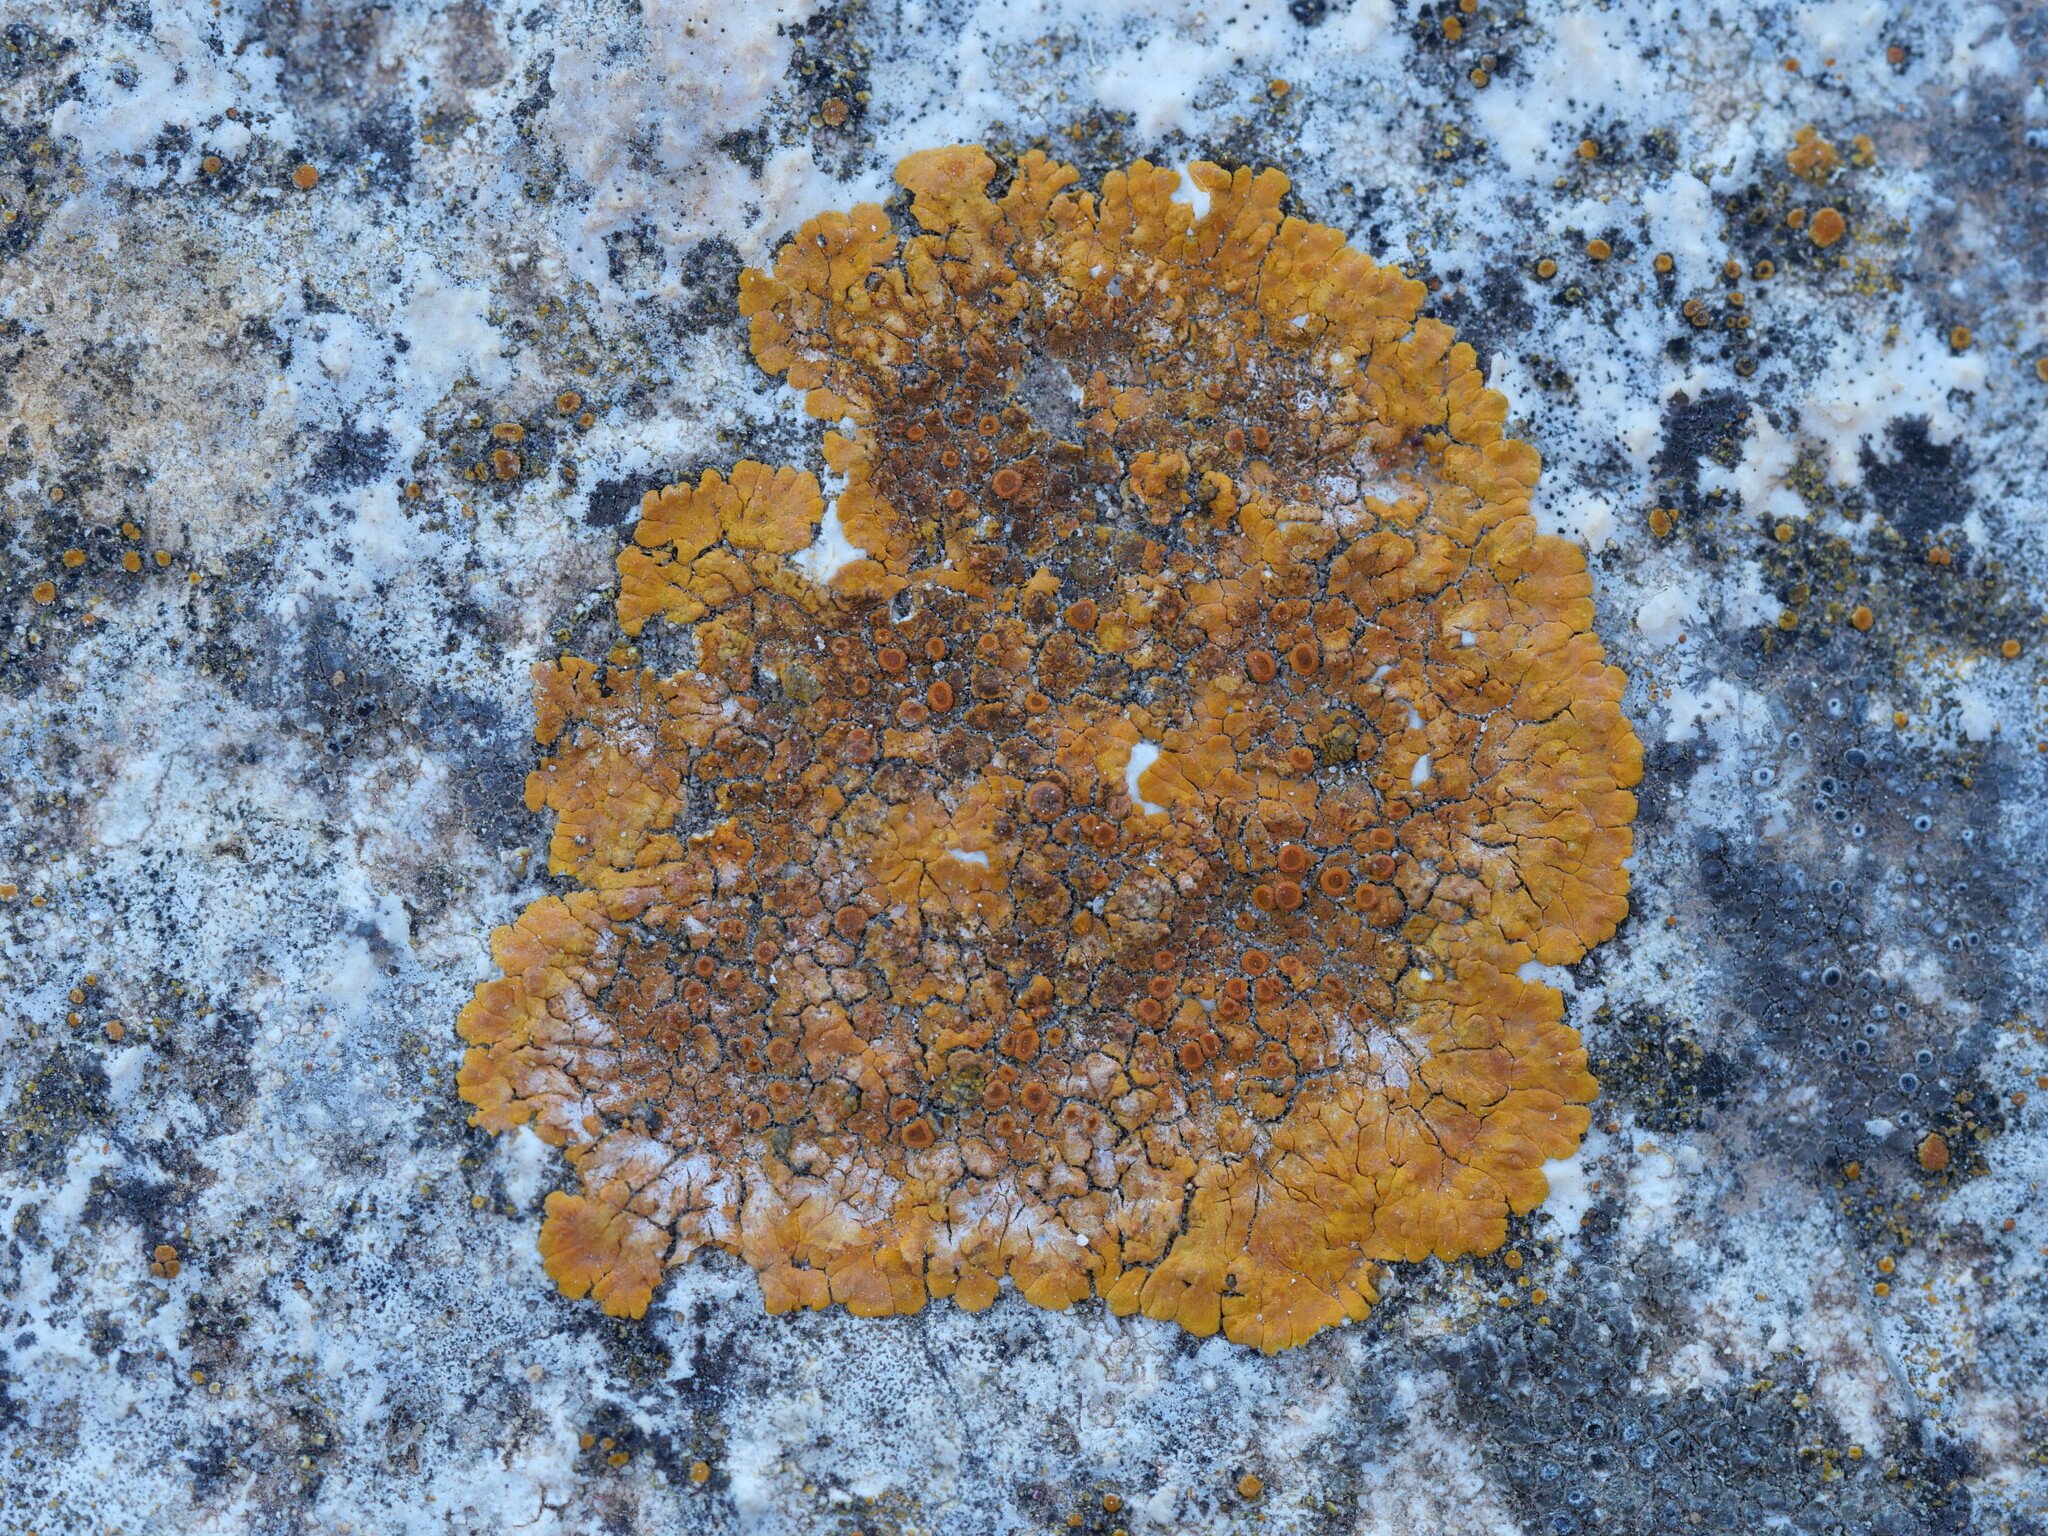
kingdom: Fungi
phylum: Ascomycota
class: Lecanoromycetes
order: Teloschistales
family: Teloschistaceae
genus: Variospora
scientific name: Variospora aurantia
